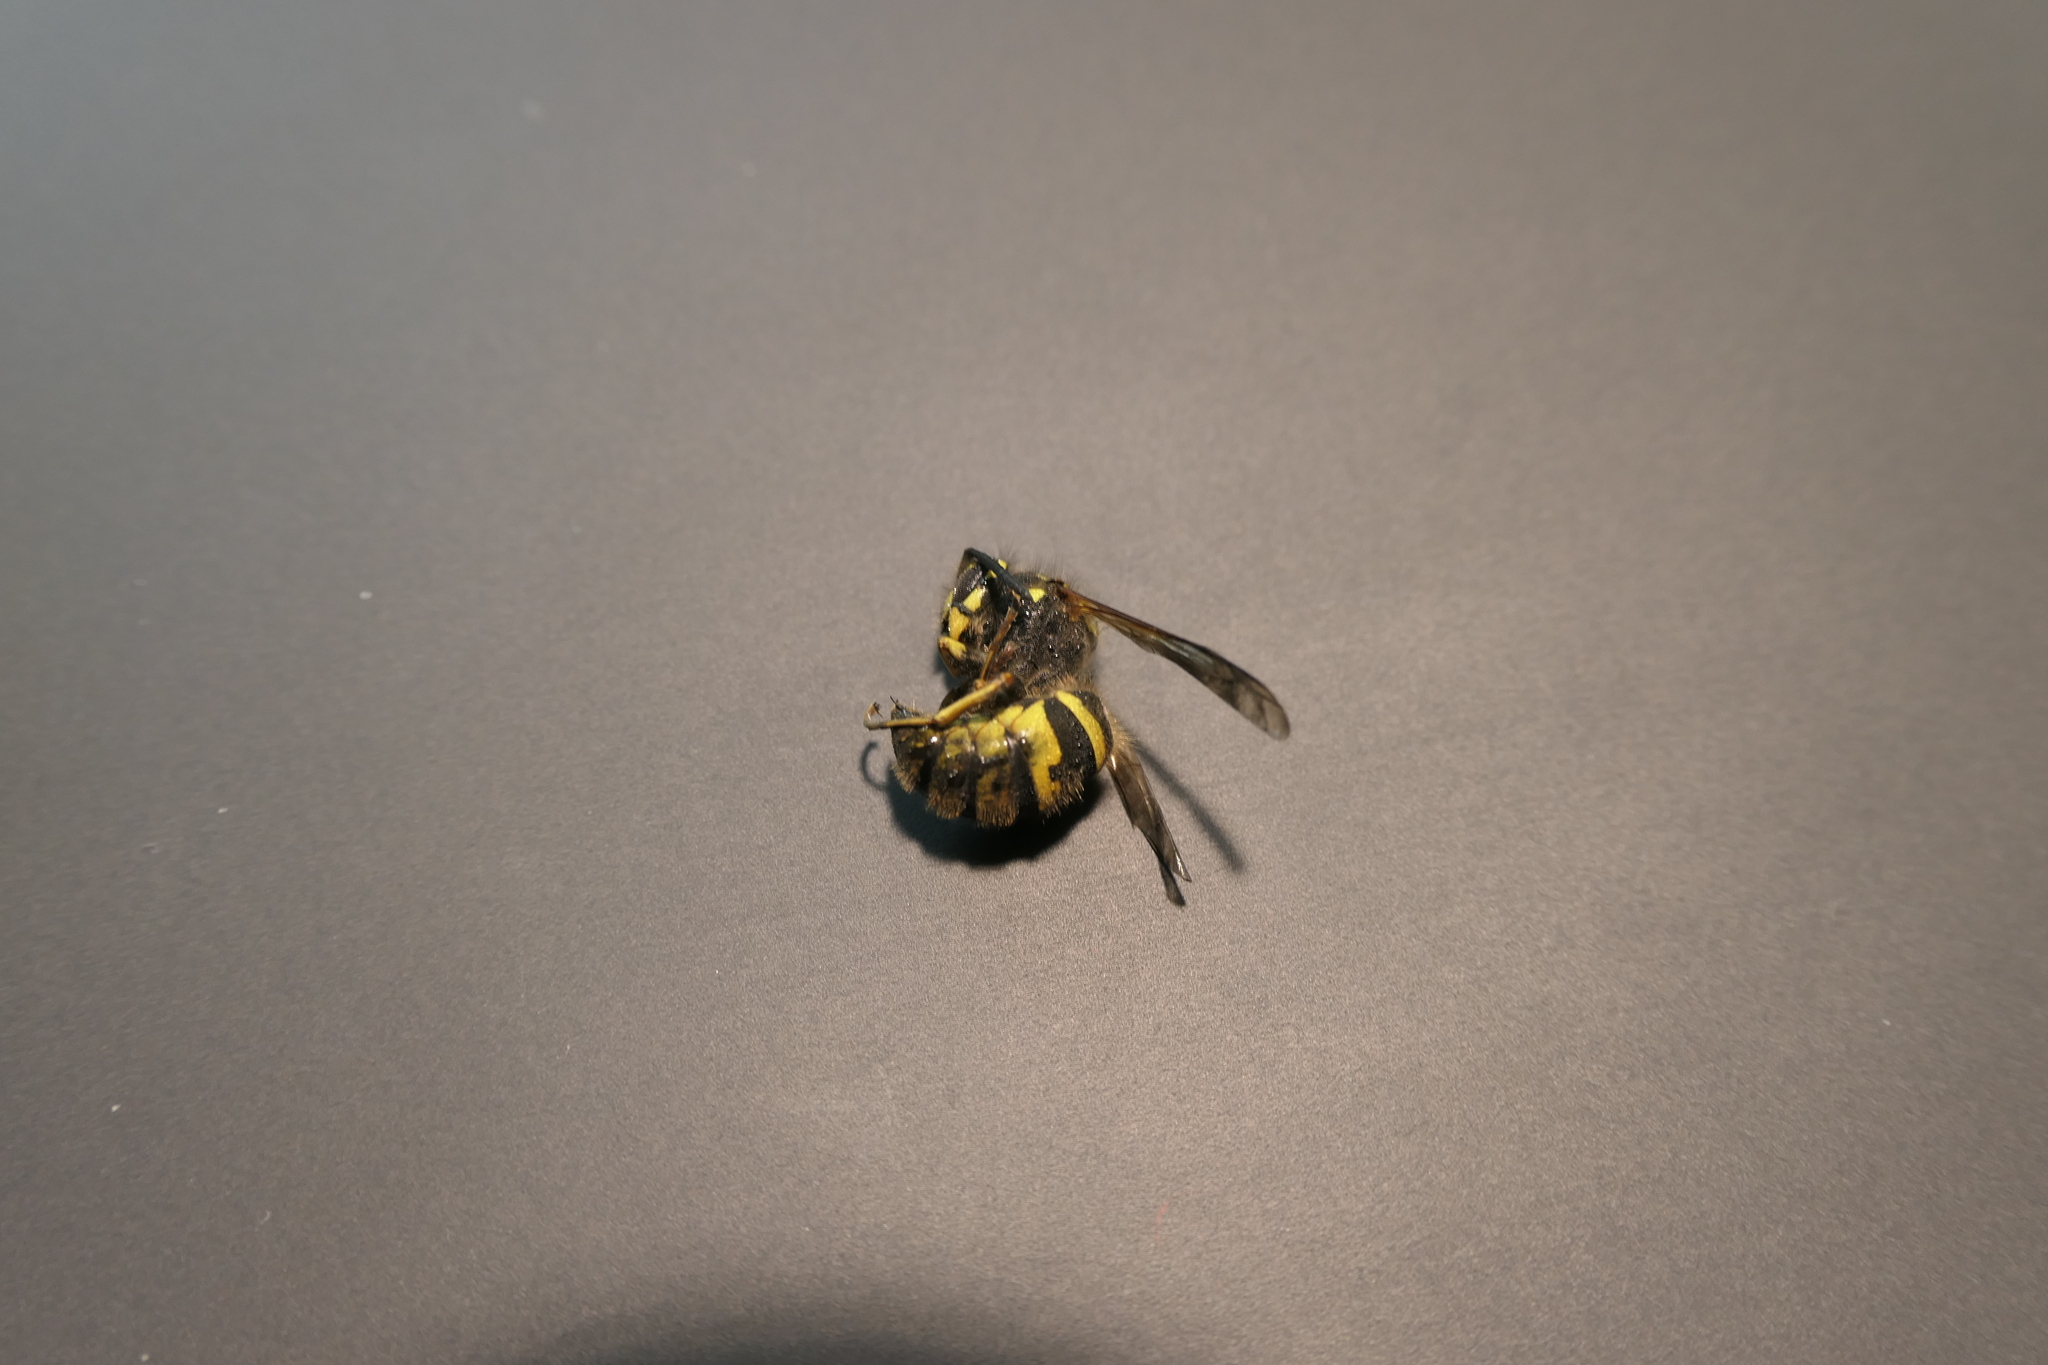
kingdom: Animalia
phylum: Arthropoda
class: Insecta
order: Hymenoptera
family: Vespidae
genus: Vespula
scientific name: Vespula vulgaris
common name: Common wasp
